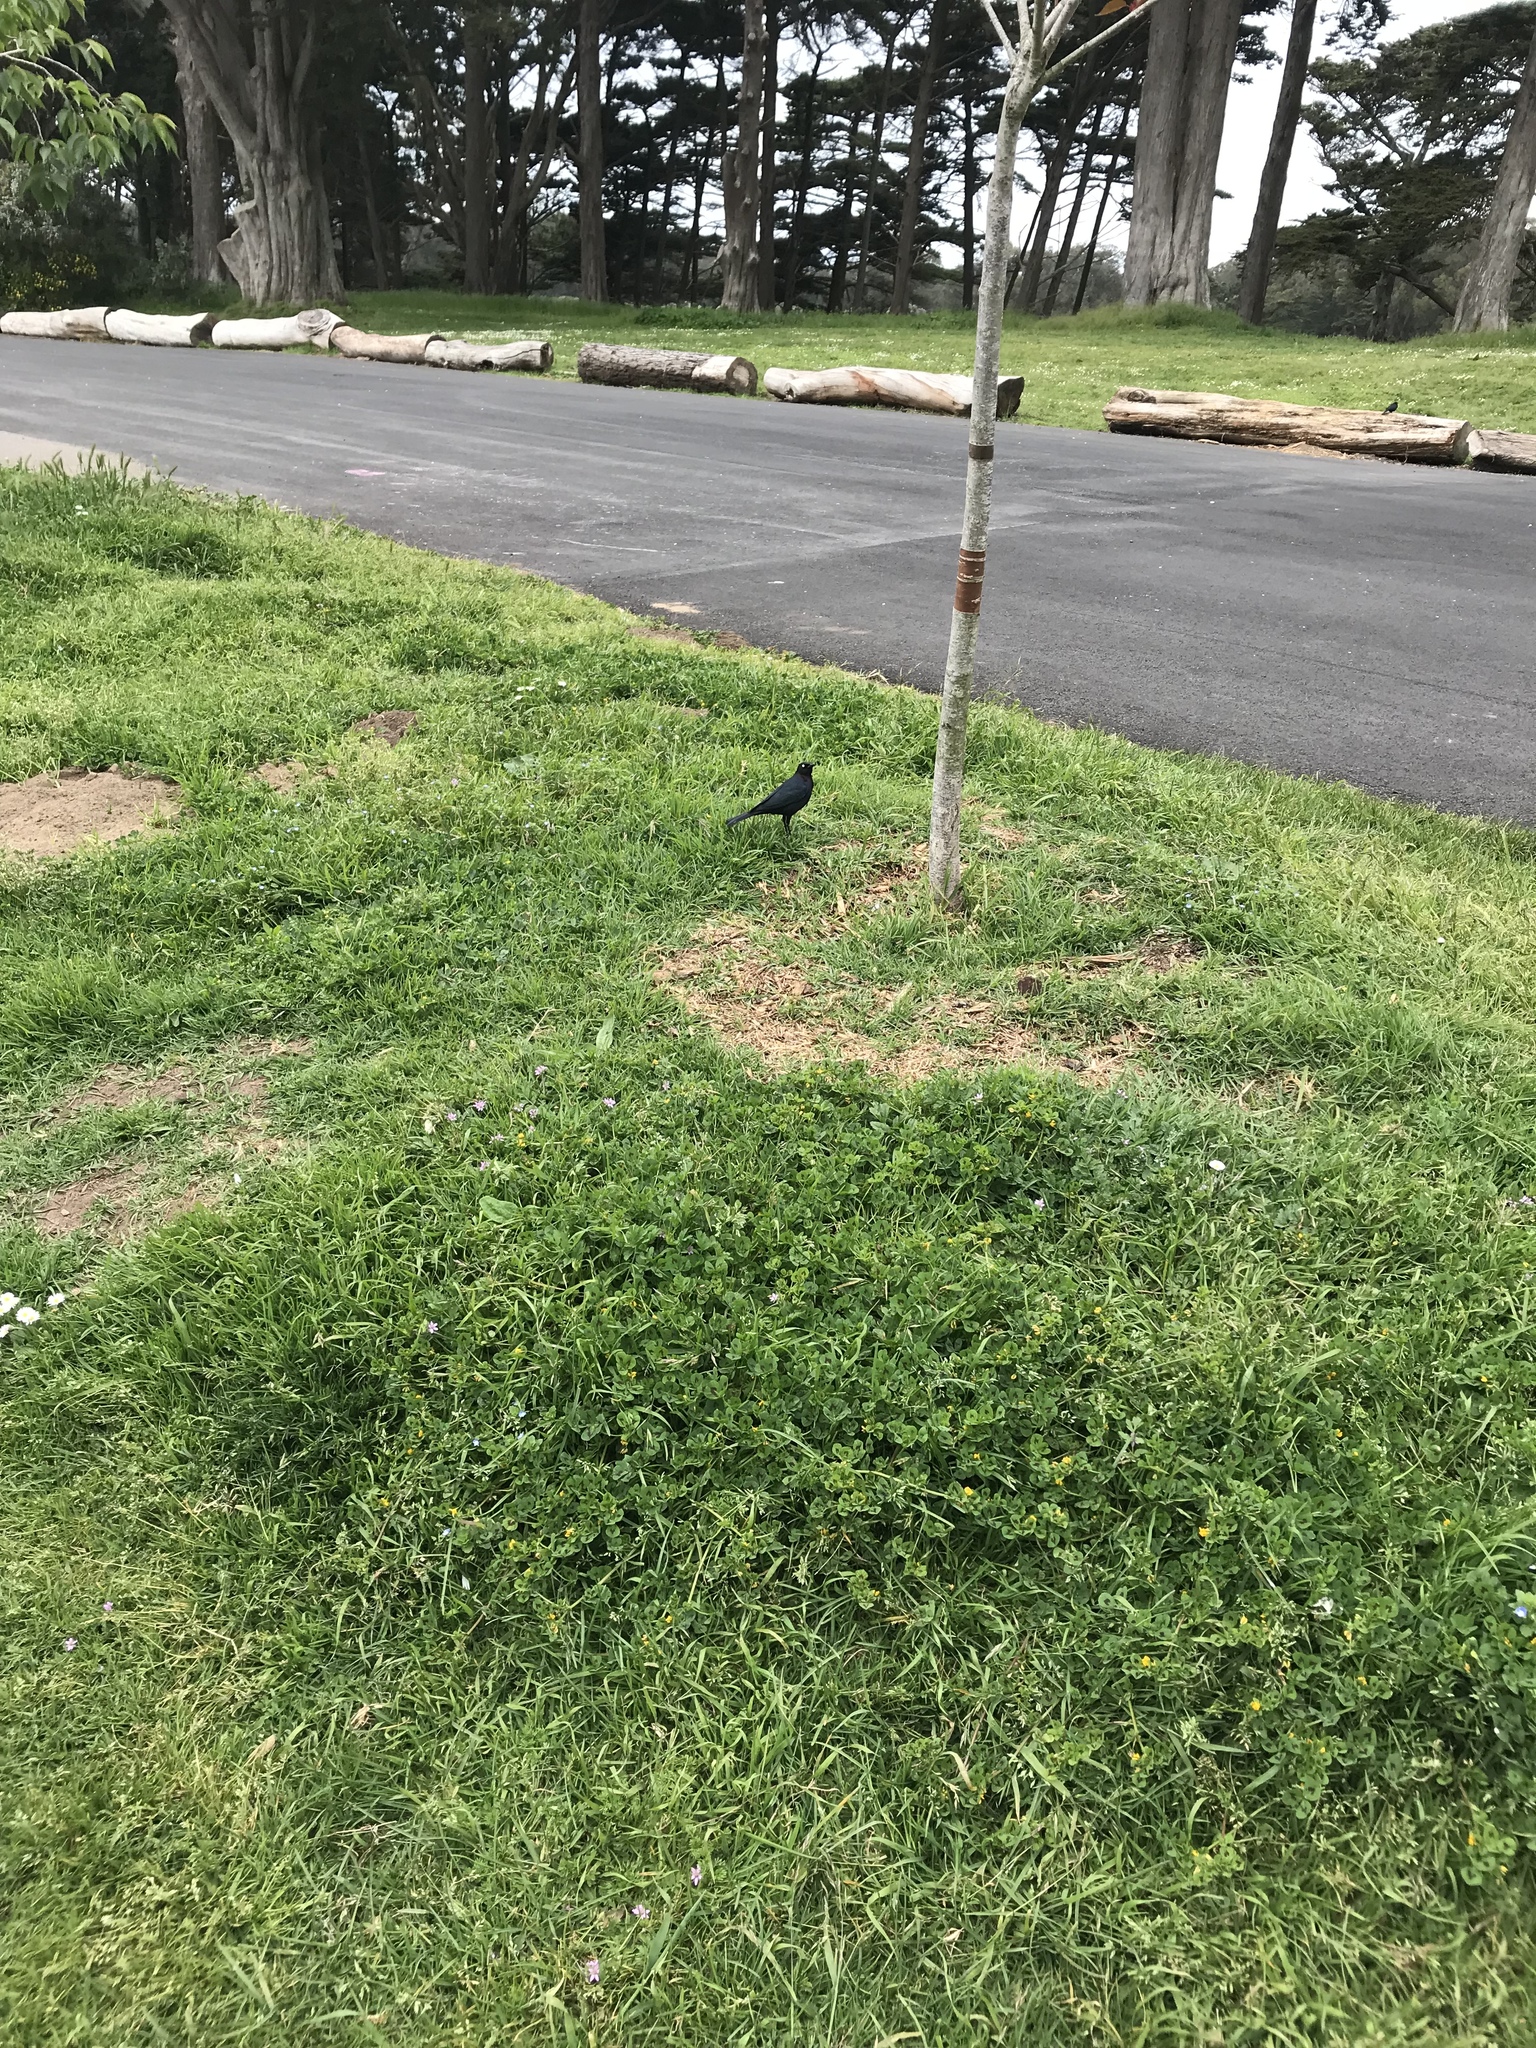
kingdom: Animalia
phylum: Chordata
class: Aves
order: Passeriformes
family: Icteridae
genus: Euphagus
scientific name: Euphagus cyanocephalus
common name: Brewer's blackbird
